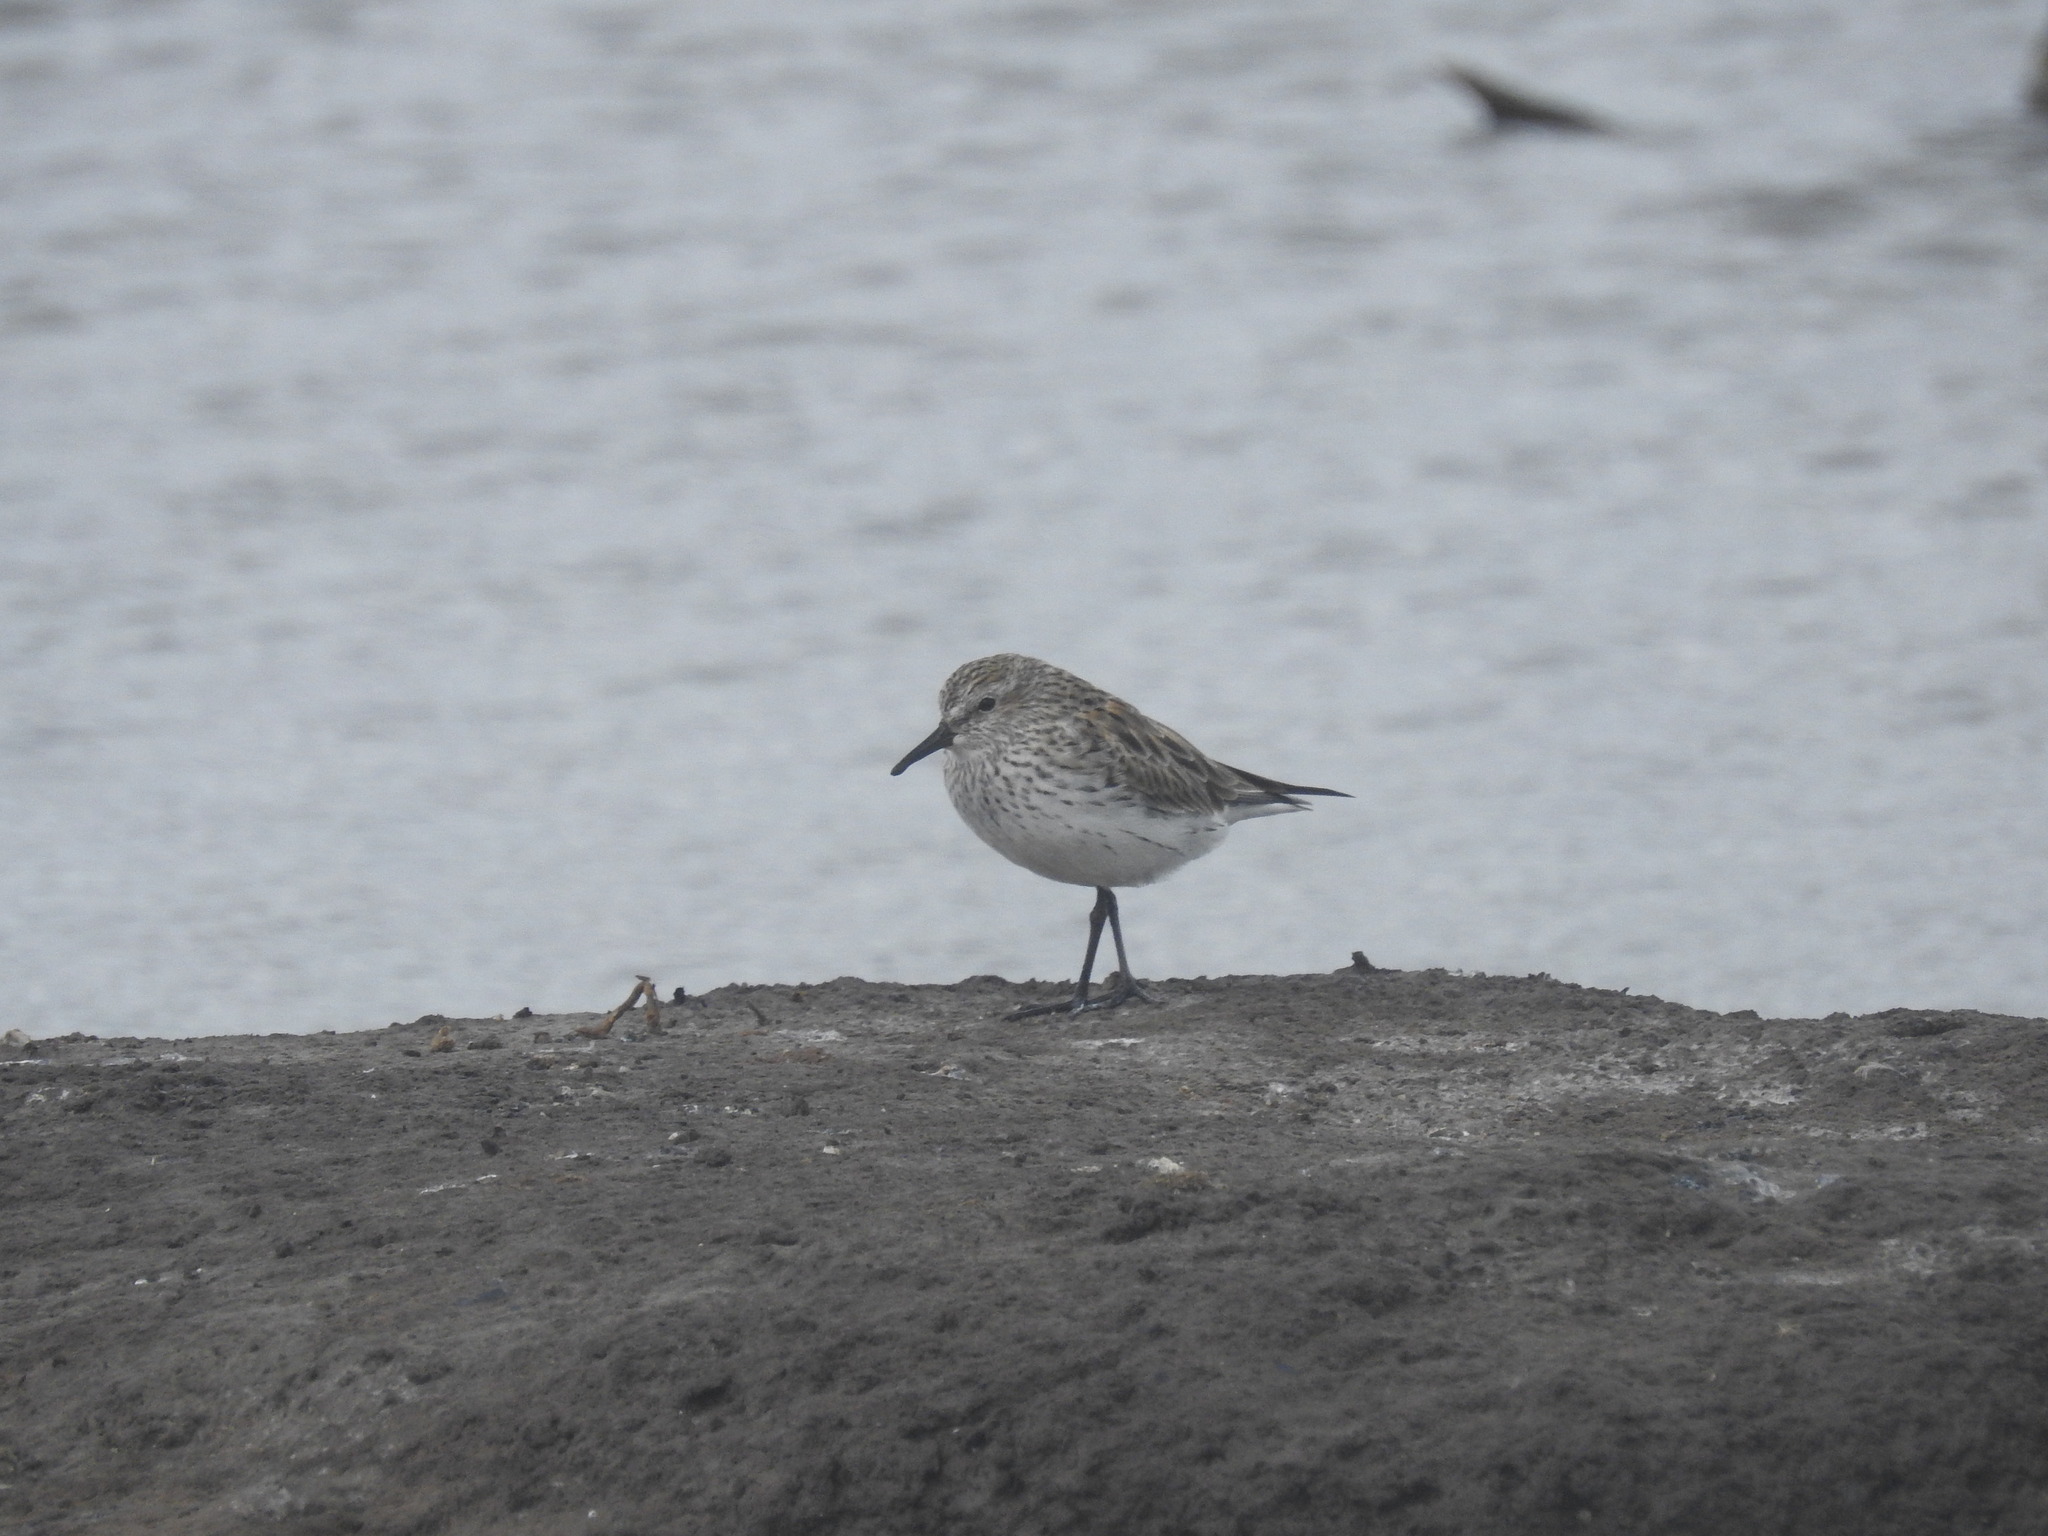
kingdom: Animalia
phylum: Chordata
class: Aves
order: Charadriiformes
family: Scolopacidae
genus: Calidris
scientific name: Calidris fuscicollis
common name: White-rumped sandpiper
